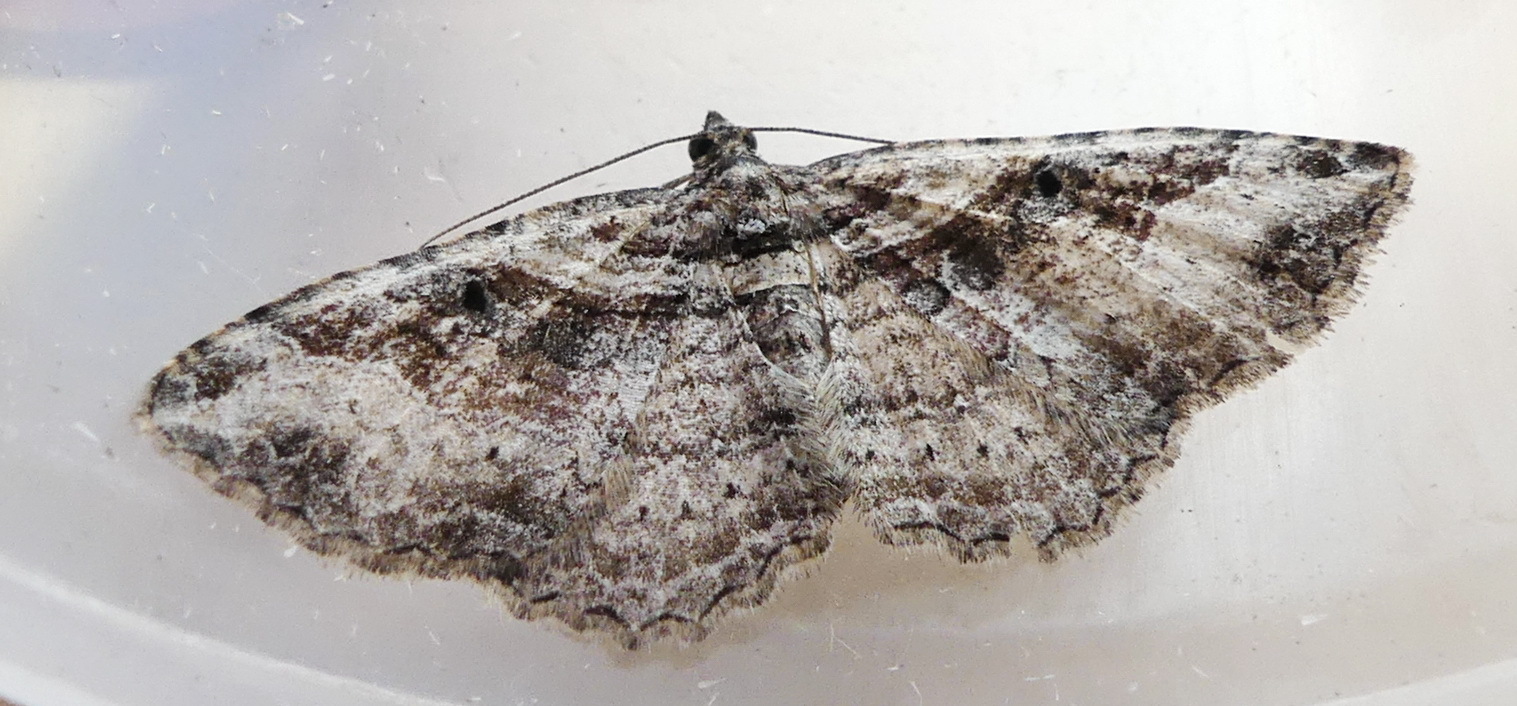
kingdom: Animalia
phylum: Arthropoda
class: Insecta
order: Lepidoptera
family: Geometridae
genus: Costaconvexa
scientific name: Costaconvexa centrostrigaria
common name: Bent-line carpet
